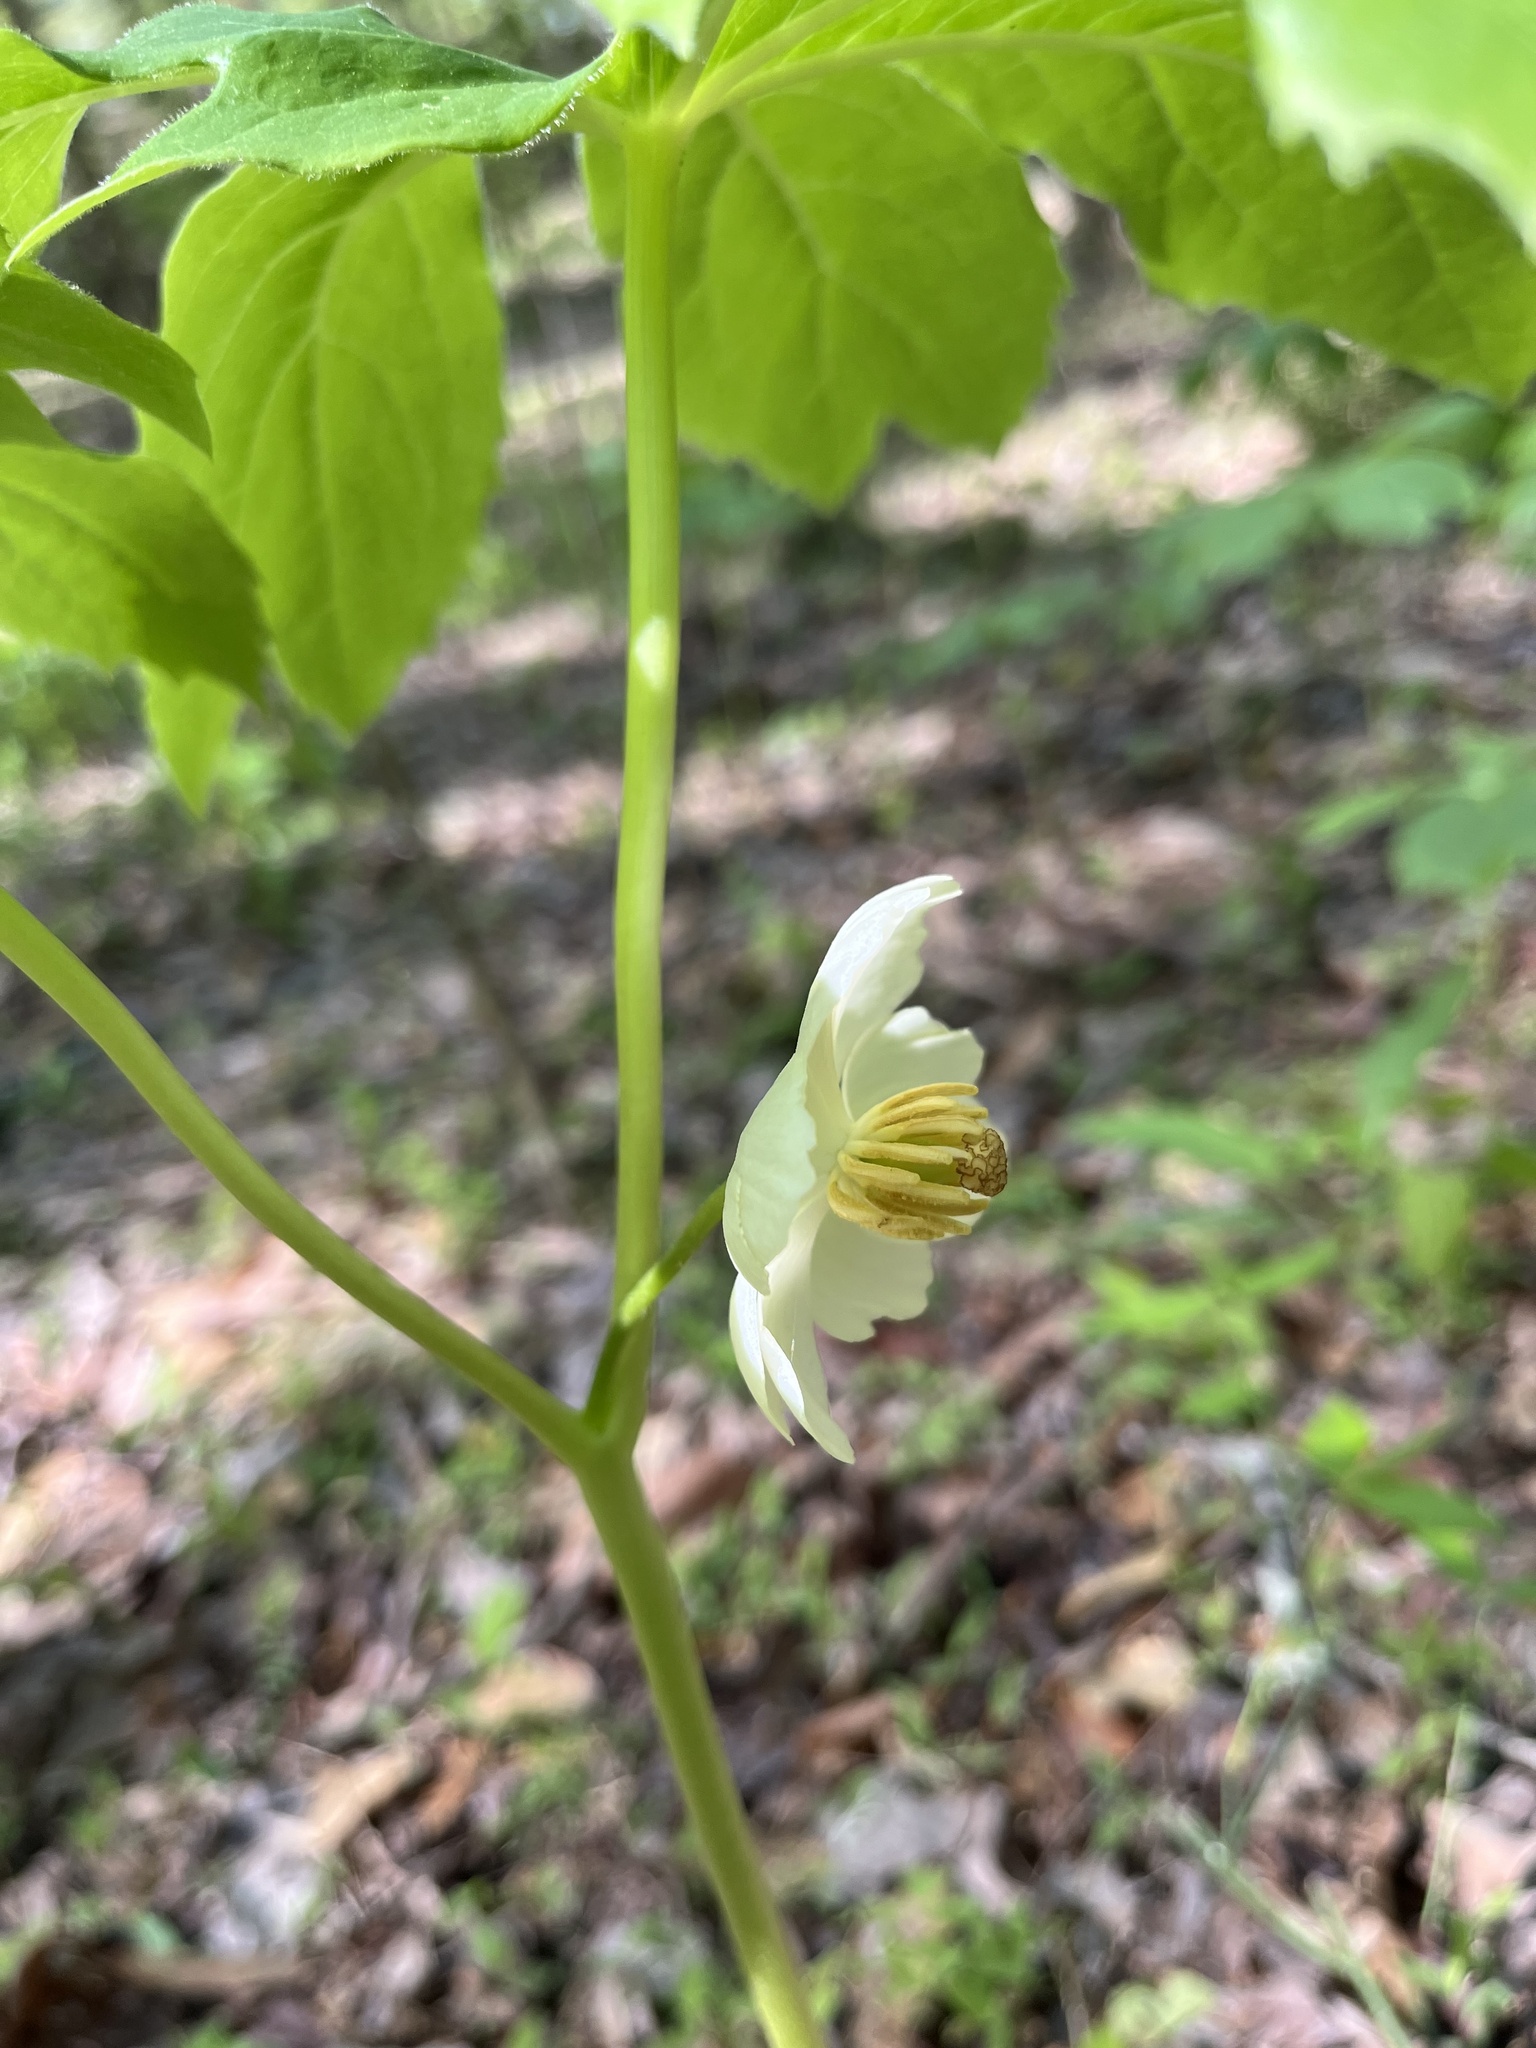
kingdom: Plantae
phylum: Tracheophyta
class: Magnoliopsida
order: Ranunculales
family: Berberidaceae
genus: Podophyllum
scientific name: Podophyllum peltatum
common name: Wild mandrake
